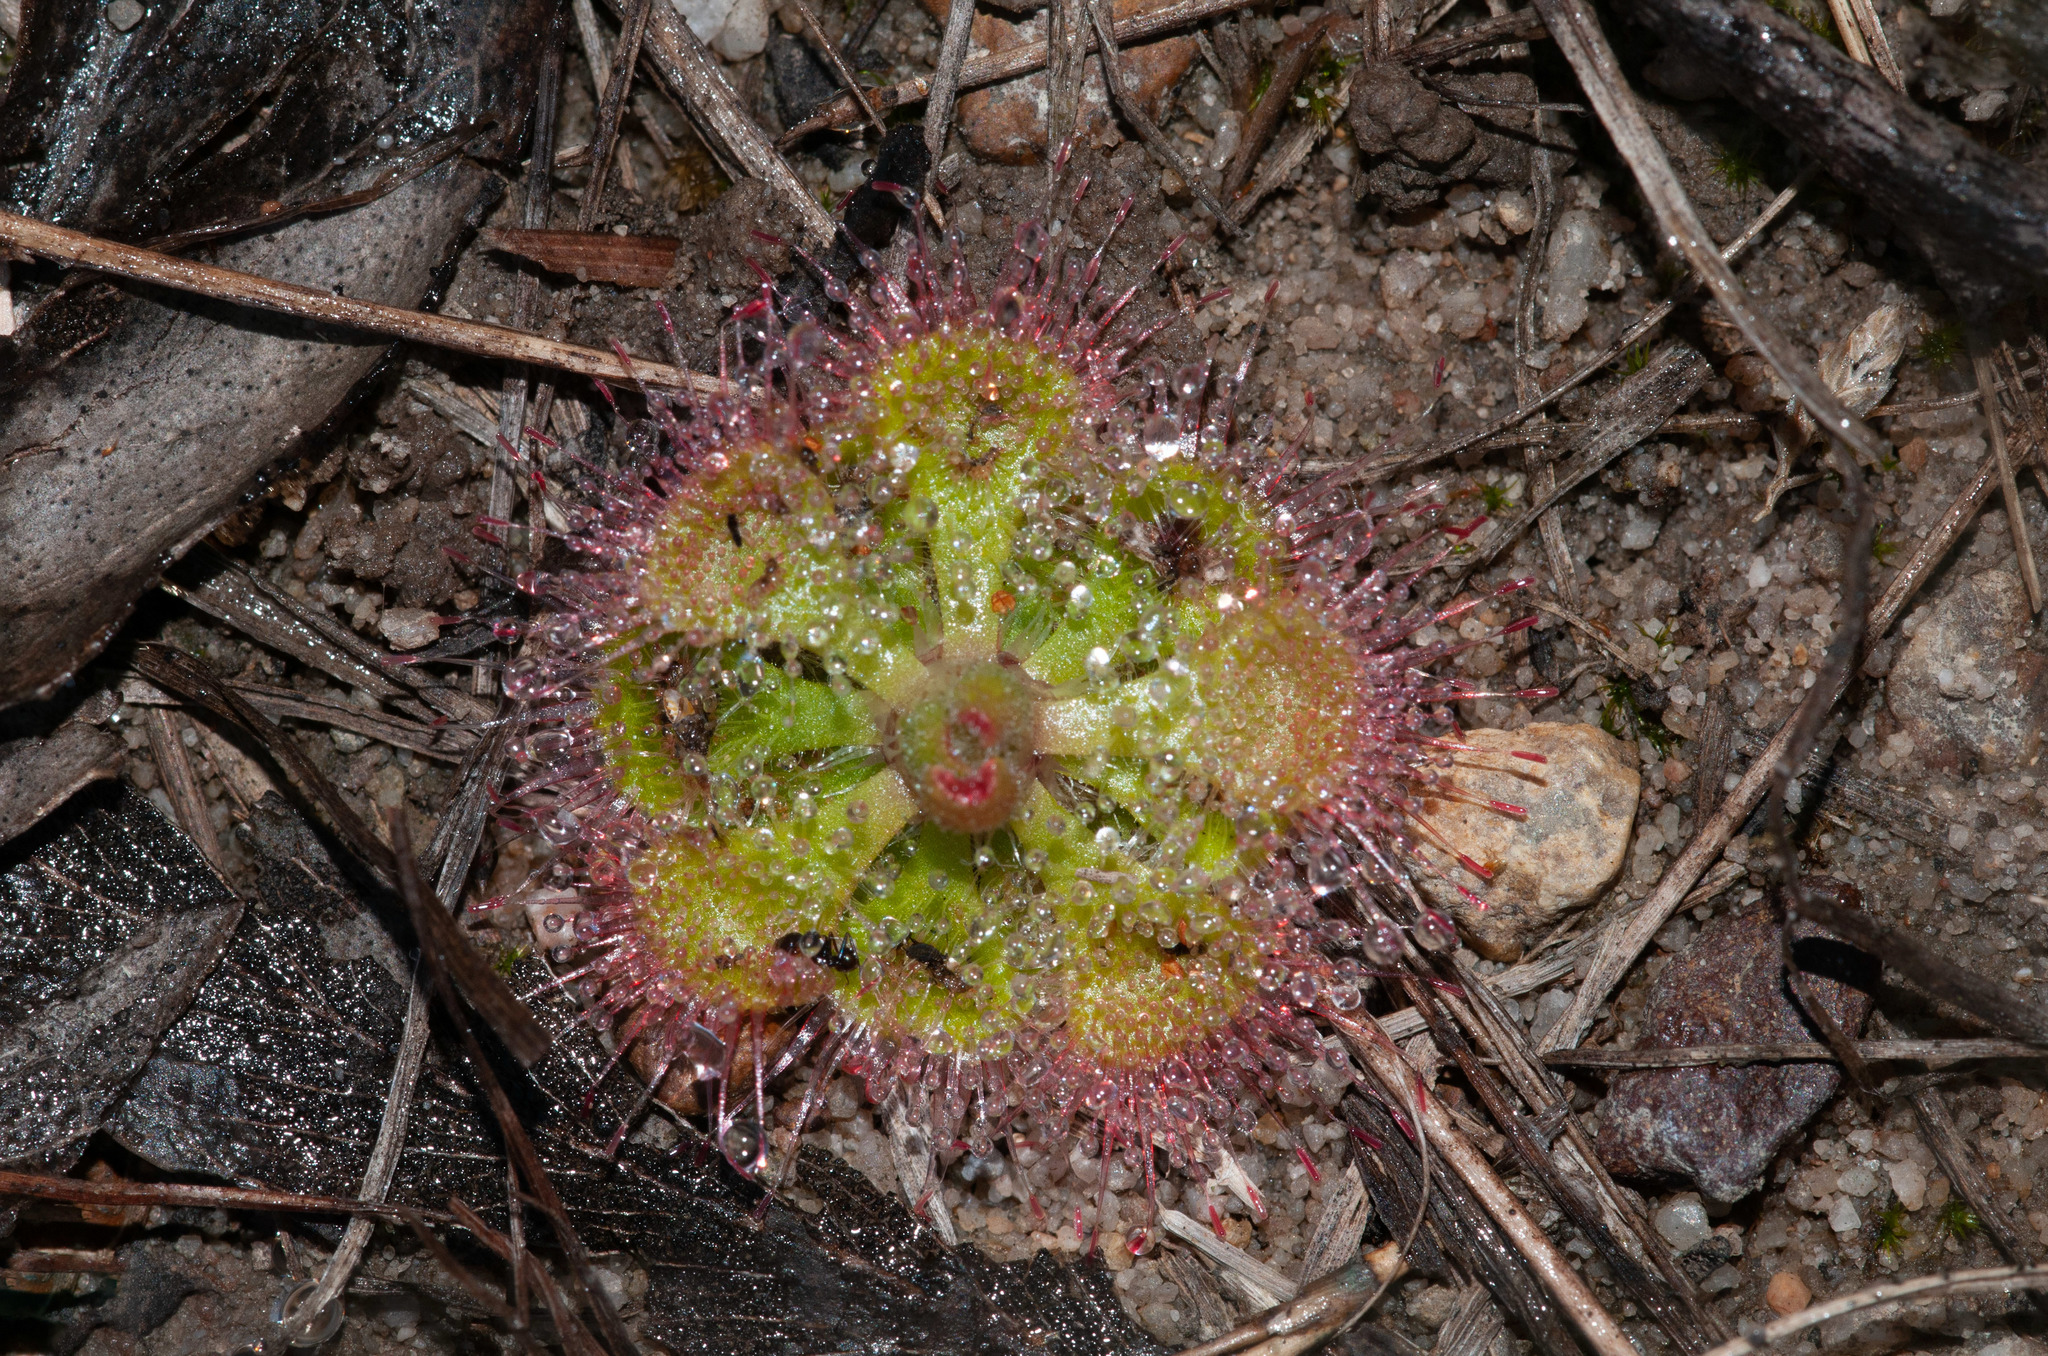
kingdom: Plantae
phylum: Tracheophyta
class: Magnoliopsida
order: Caryophyllales
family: Droseraceae
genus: Drosera
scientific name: Drosera spatulata
